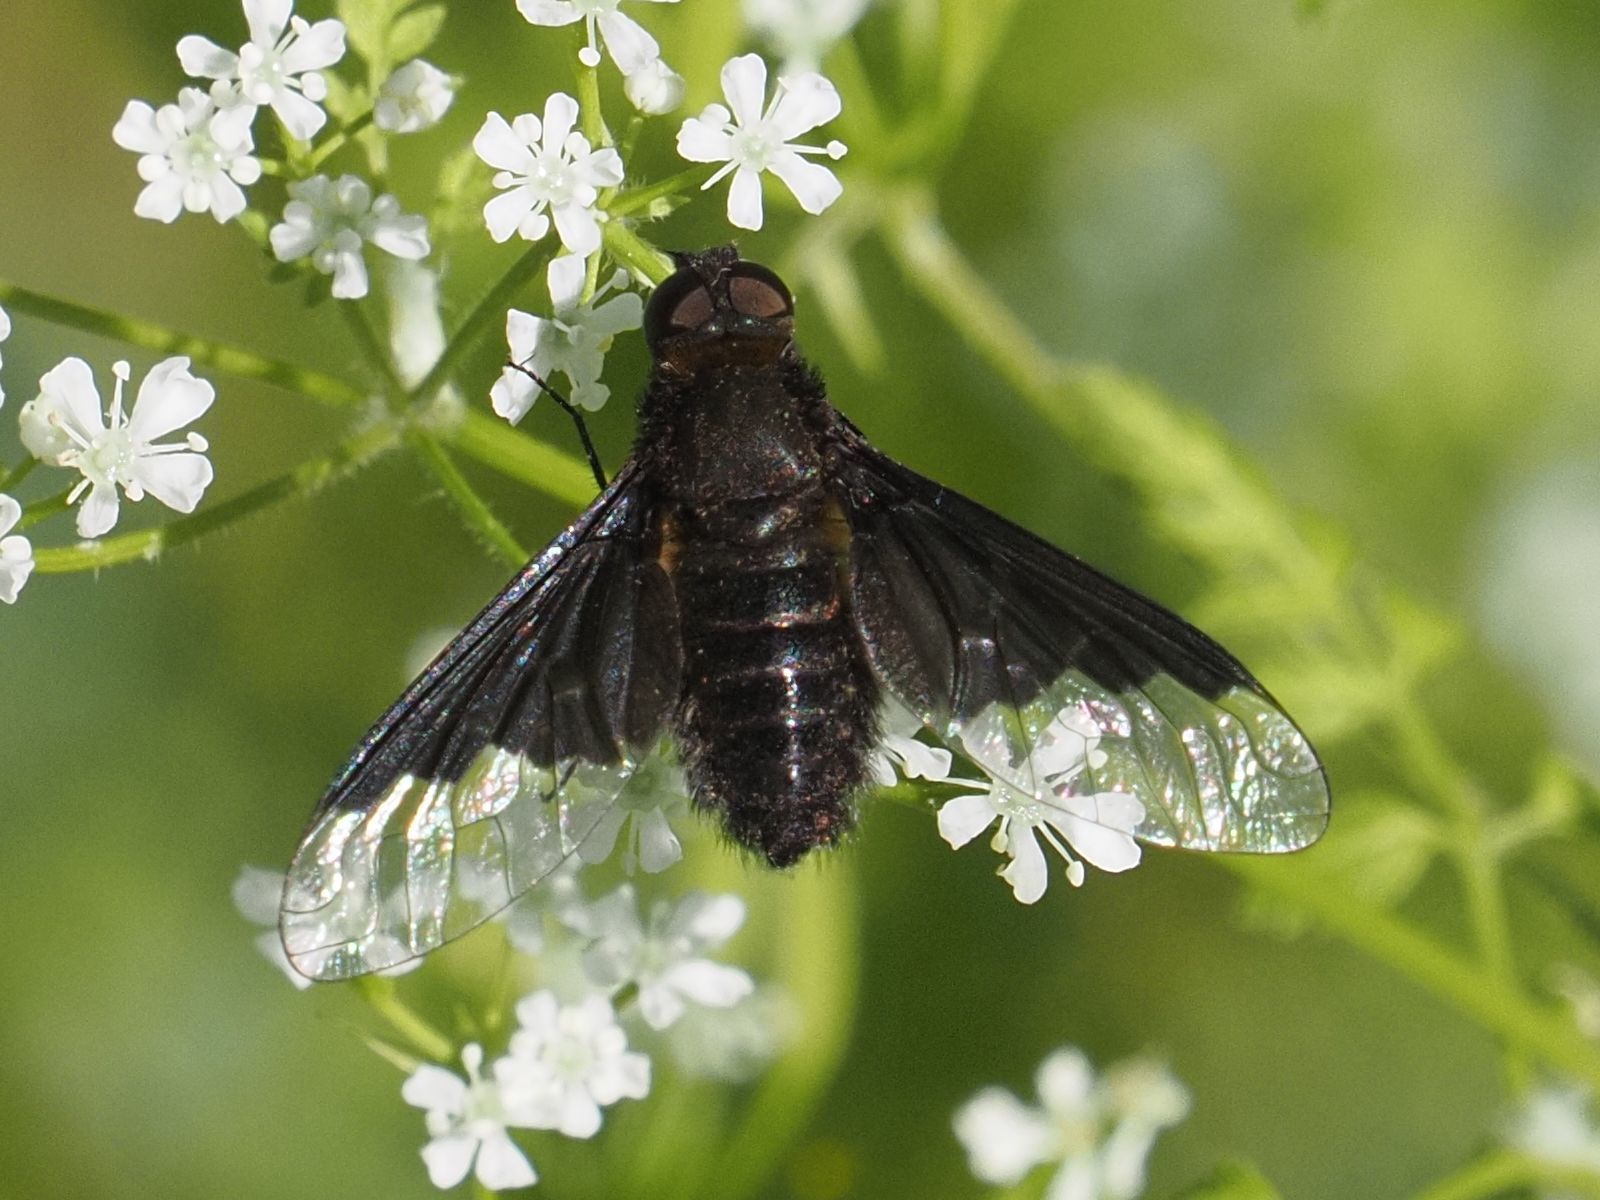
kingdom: Animalia
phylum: Arthropoda
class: Insecta
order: Diptera
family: Bombyliidae
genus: Hemipenthes
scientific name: Hemipenthes morio
